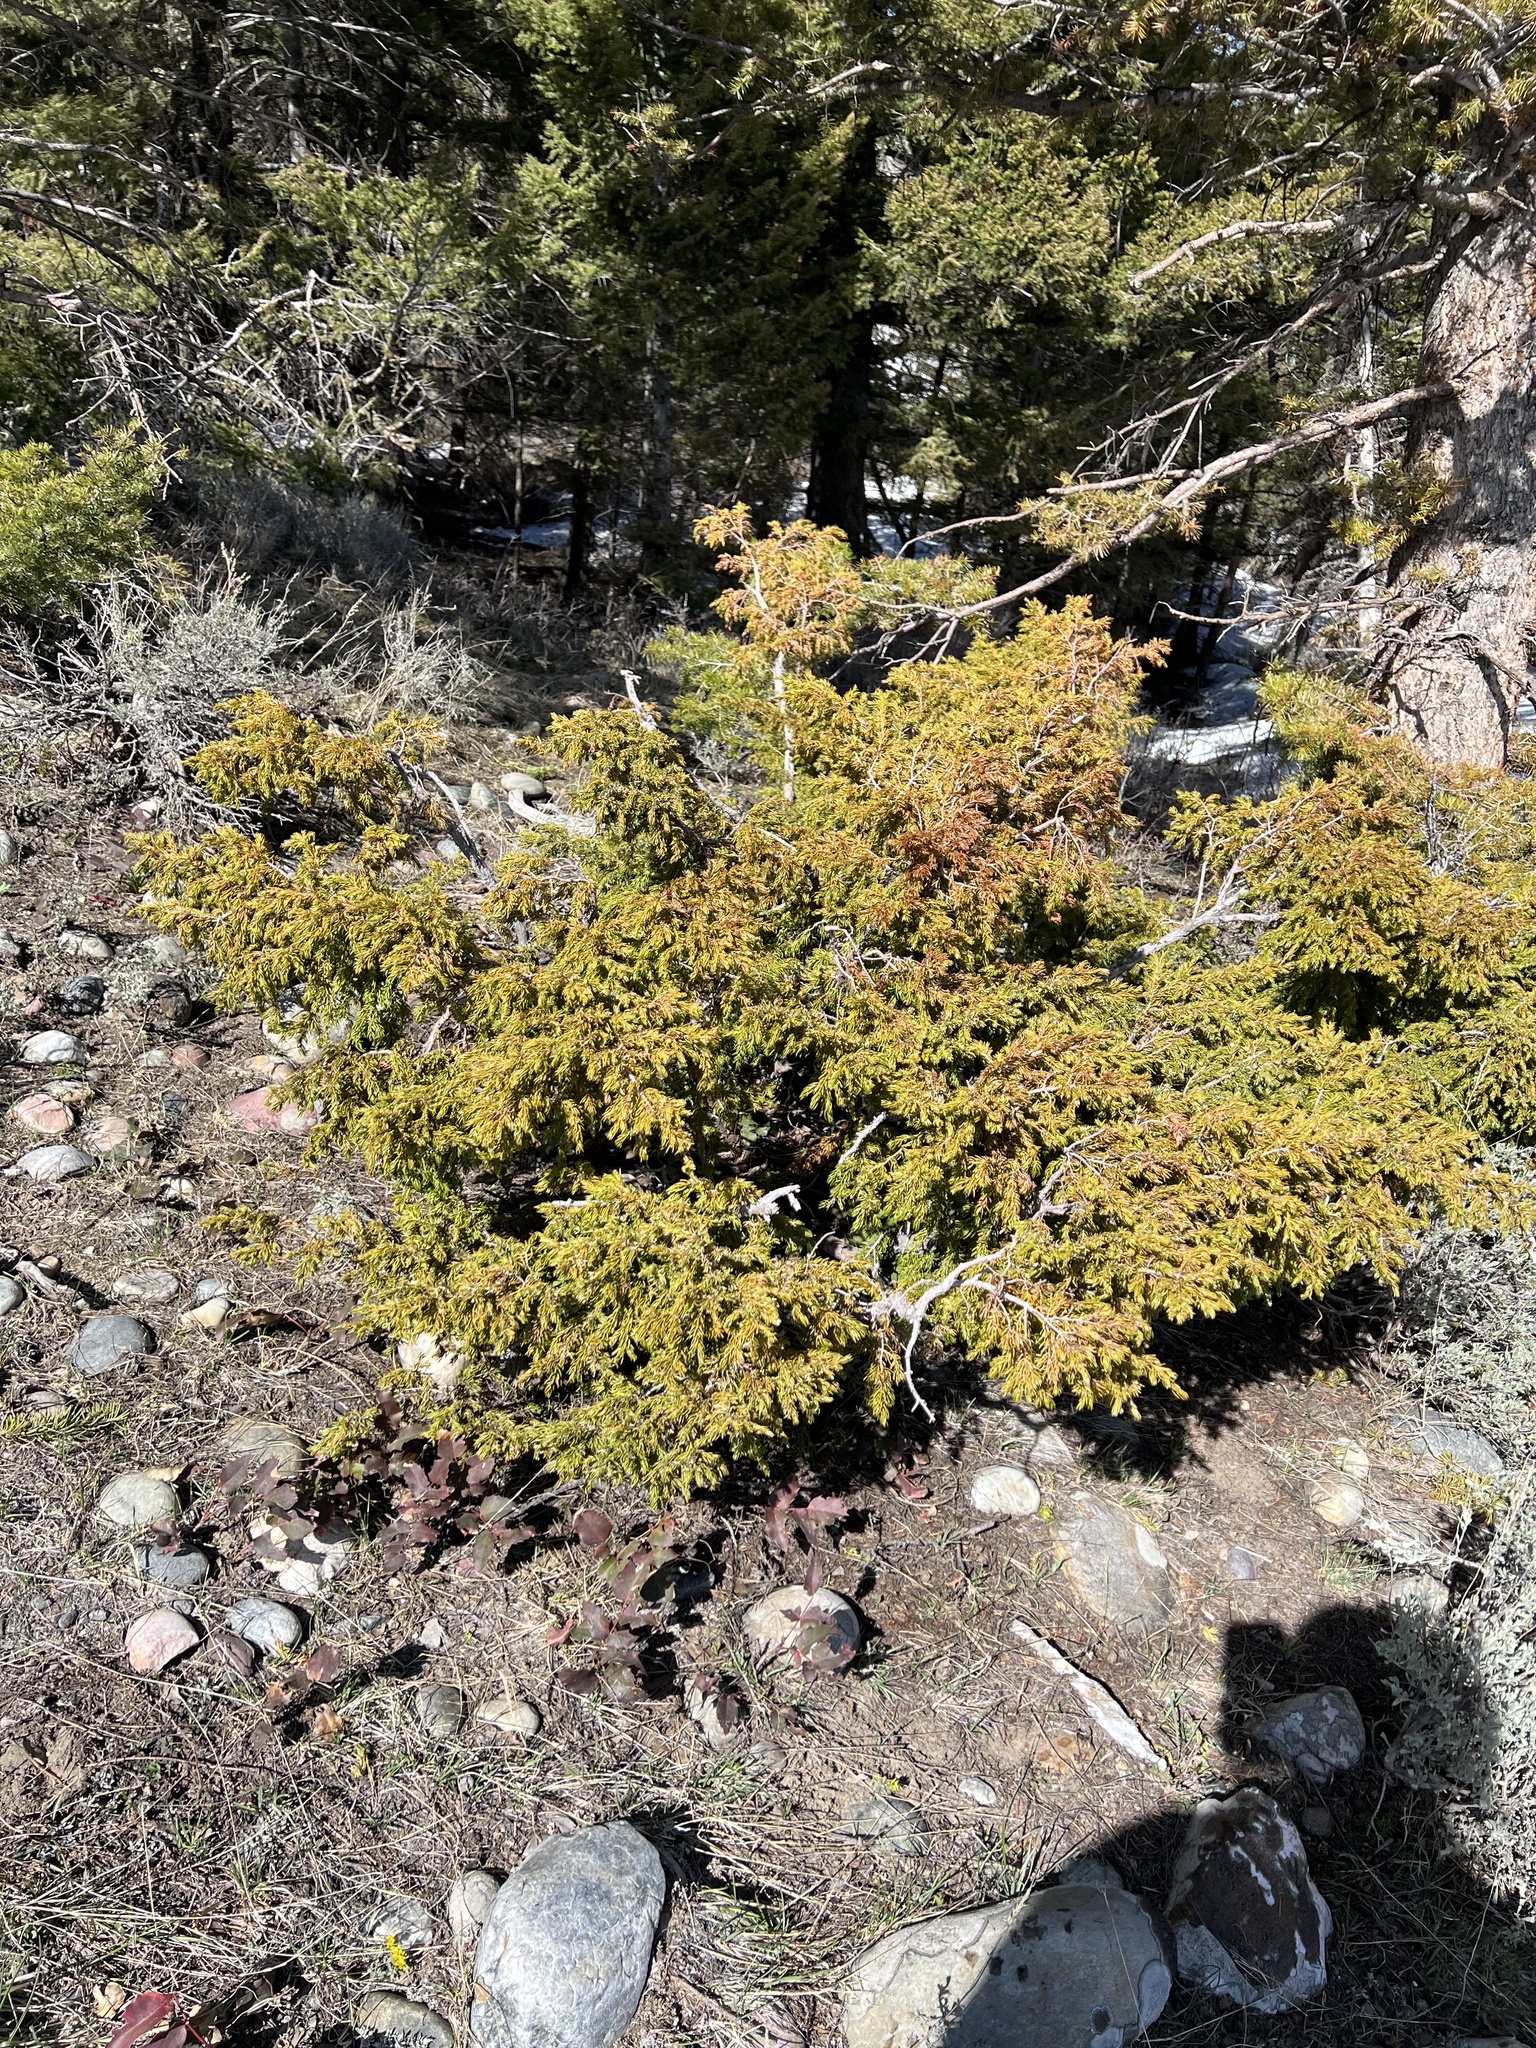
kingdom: Plantae
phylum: Tracheophyta
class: Pinopsida
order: Pinales
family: Cupressaceae
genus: Juniperus
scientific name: Juniperus communis
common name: Common juniper
